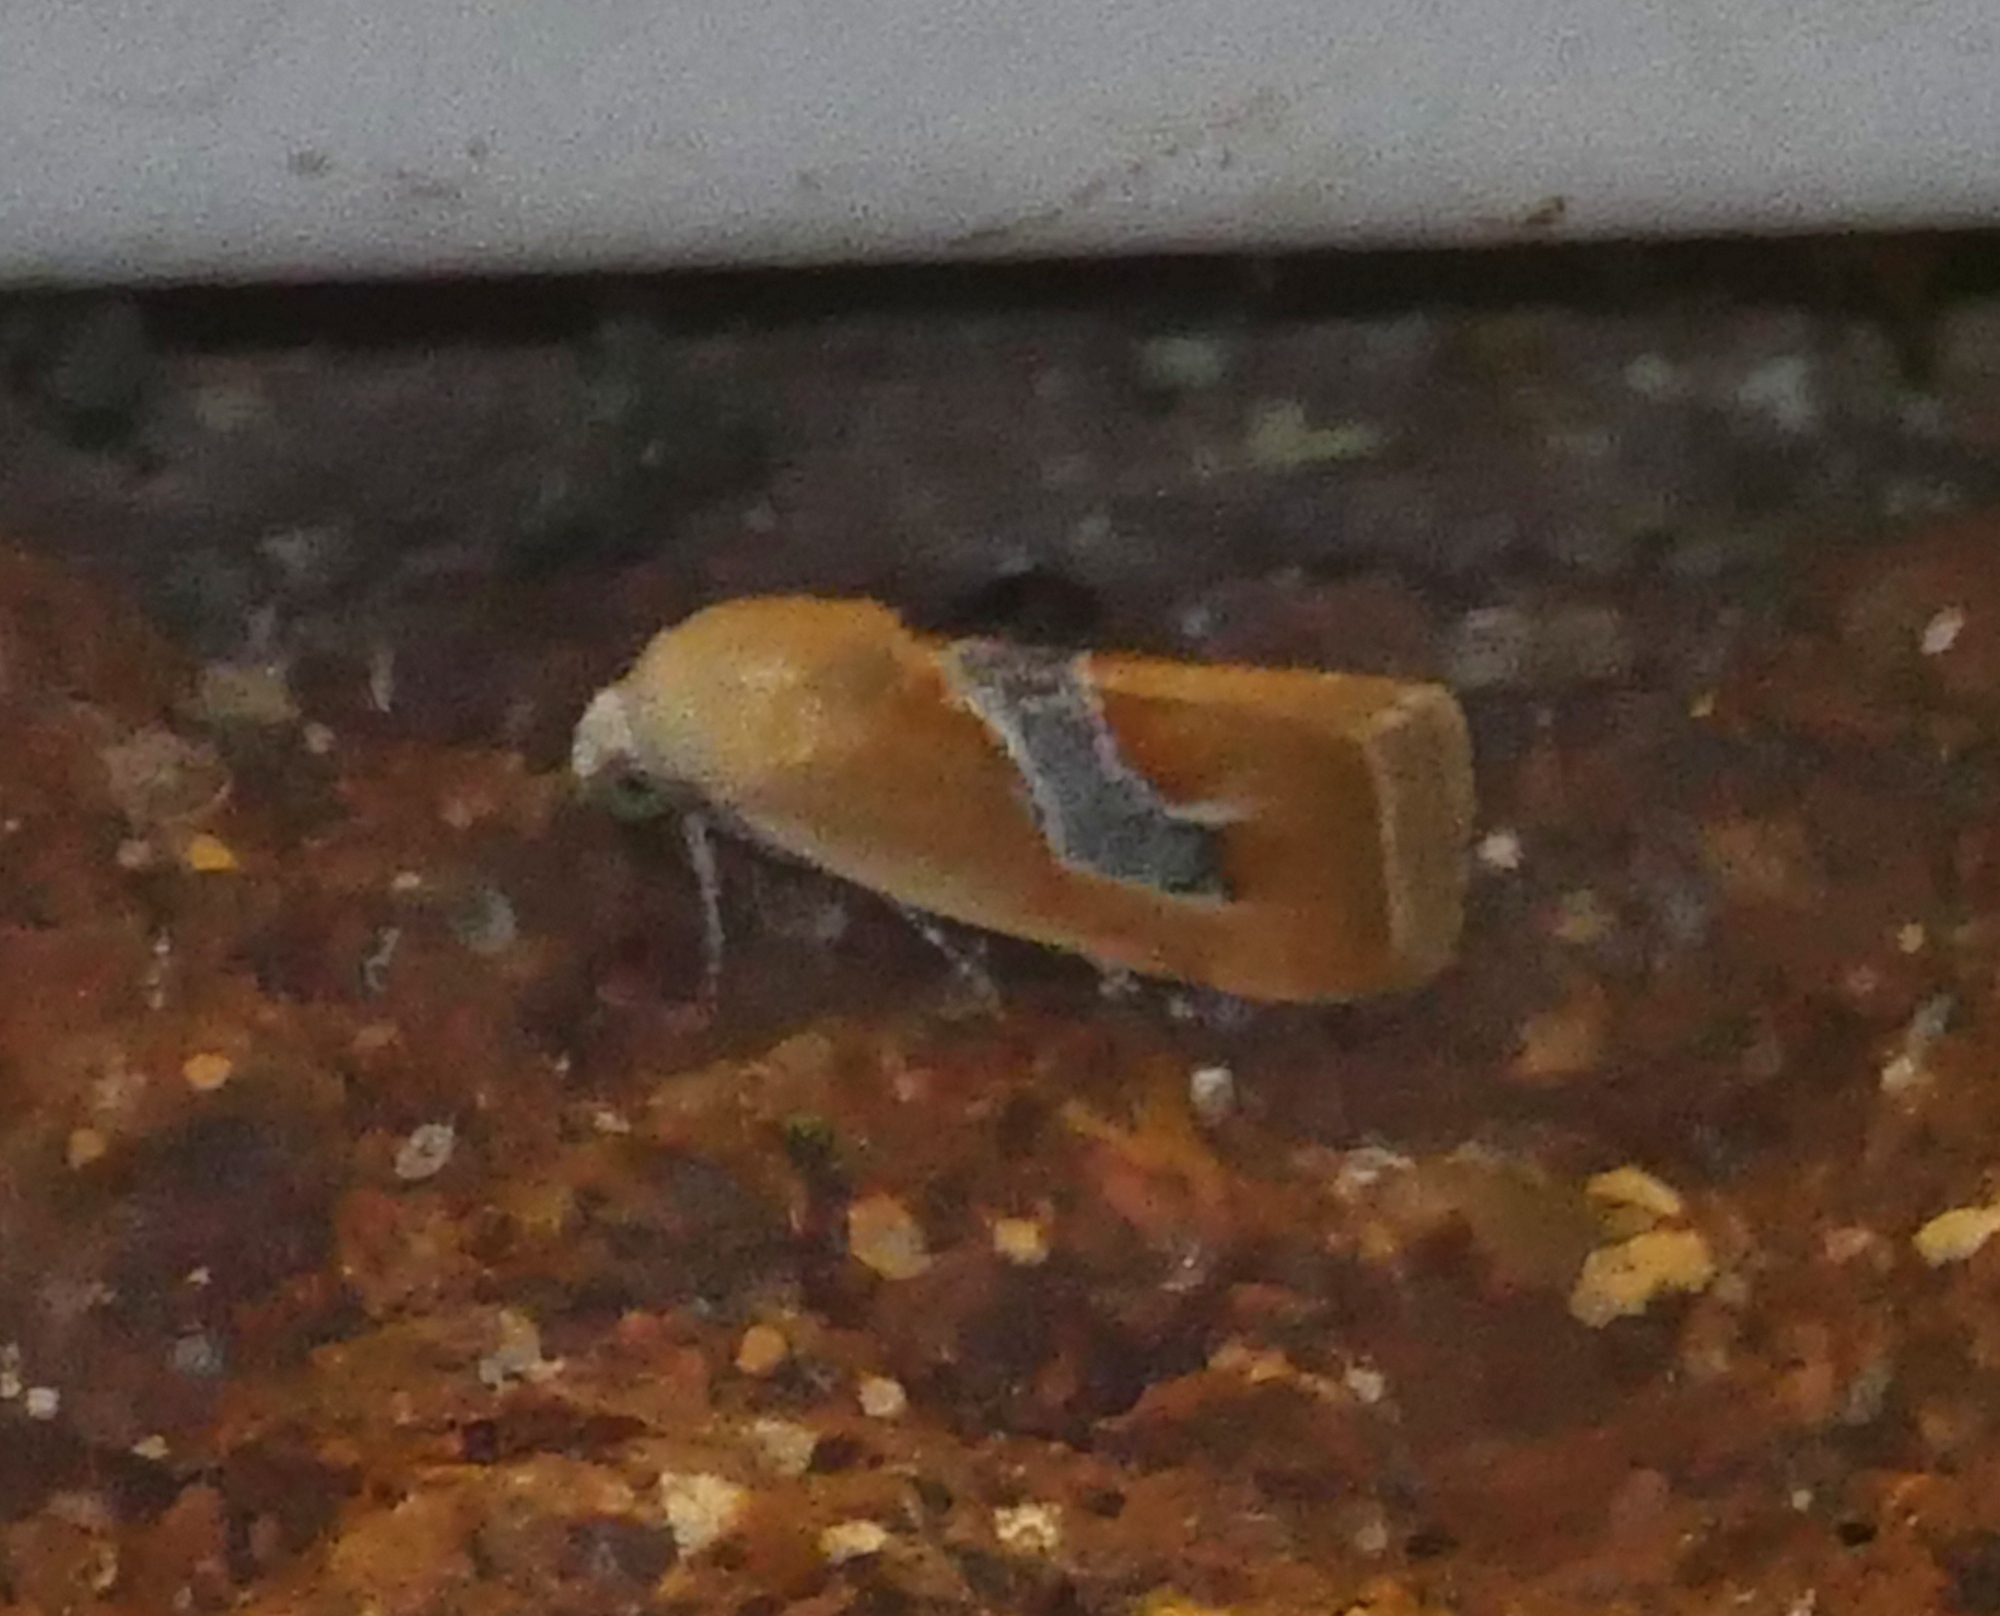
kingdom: Animalia
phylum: Arthropoda
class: Insecta
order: Lepidoptera
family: Noctuidae
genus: Ponometia
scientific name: Ponometia venustula
